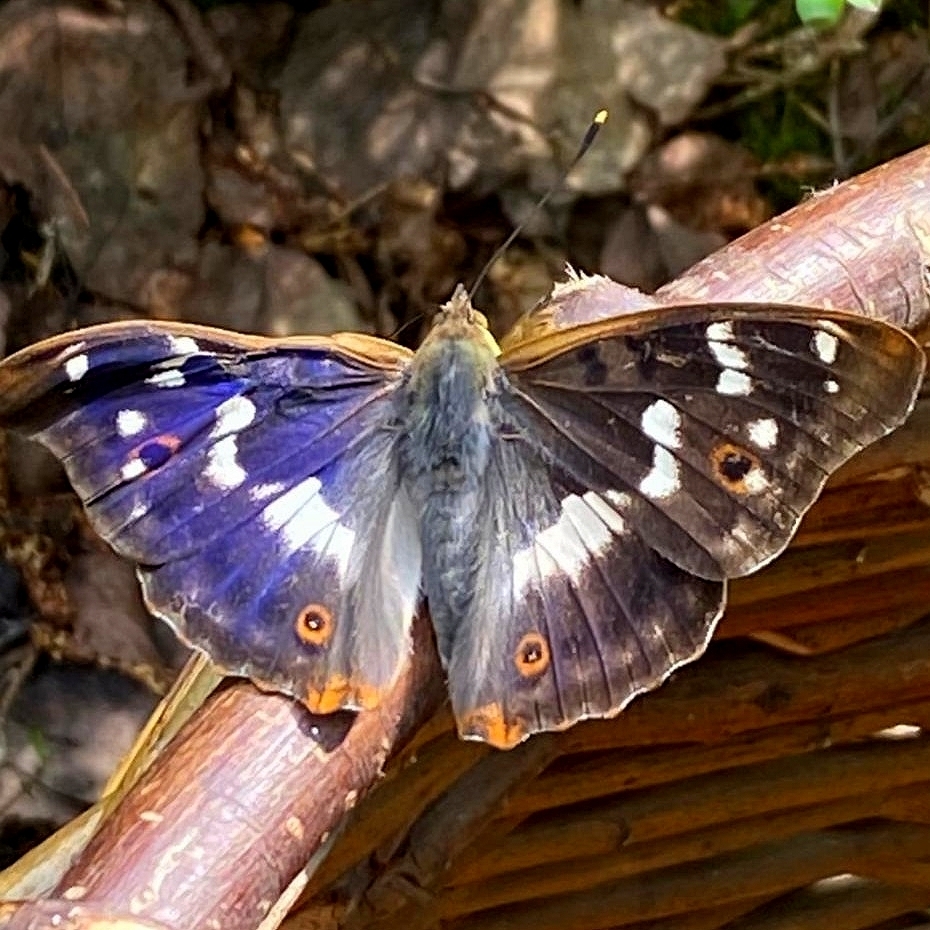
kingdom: Animalia
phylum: Arthropoda
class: Insecta
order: Lepidoptera
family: Nymphalidae
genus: Apatura
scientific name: Apatura ilia
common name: Lesser purple emperor
